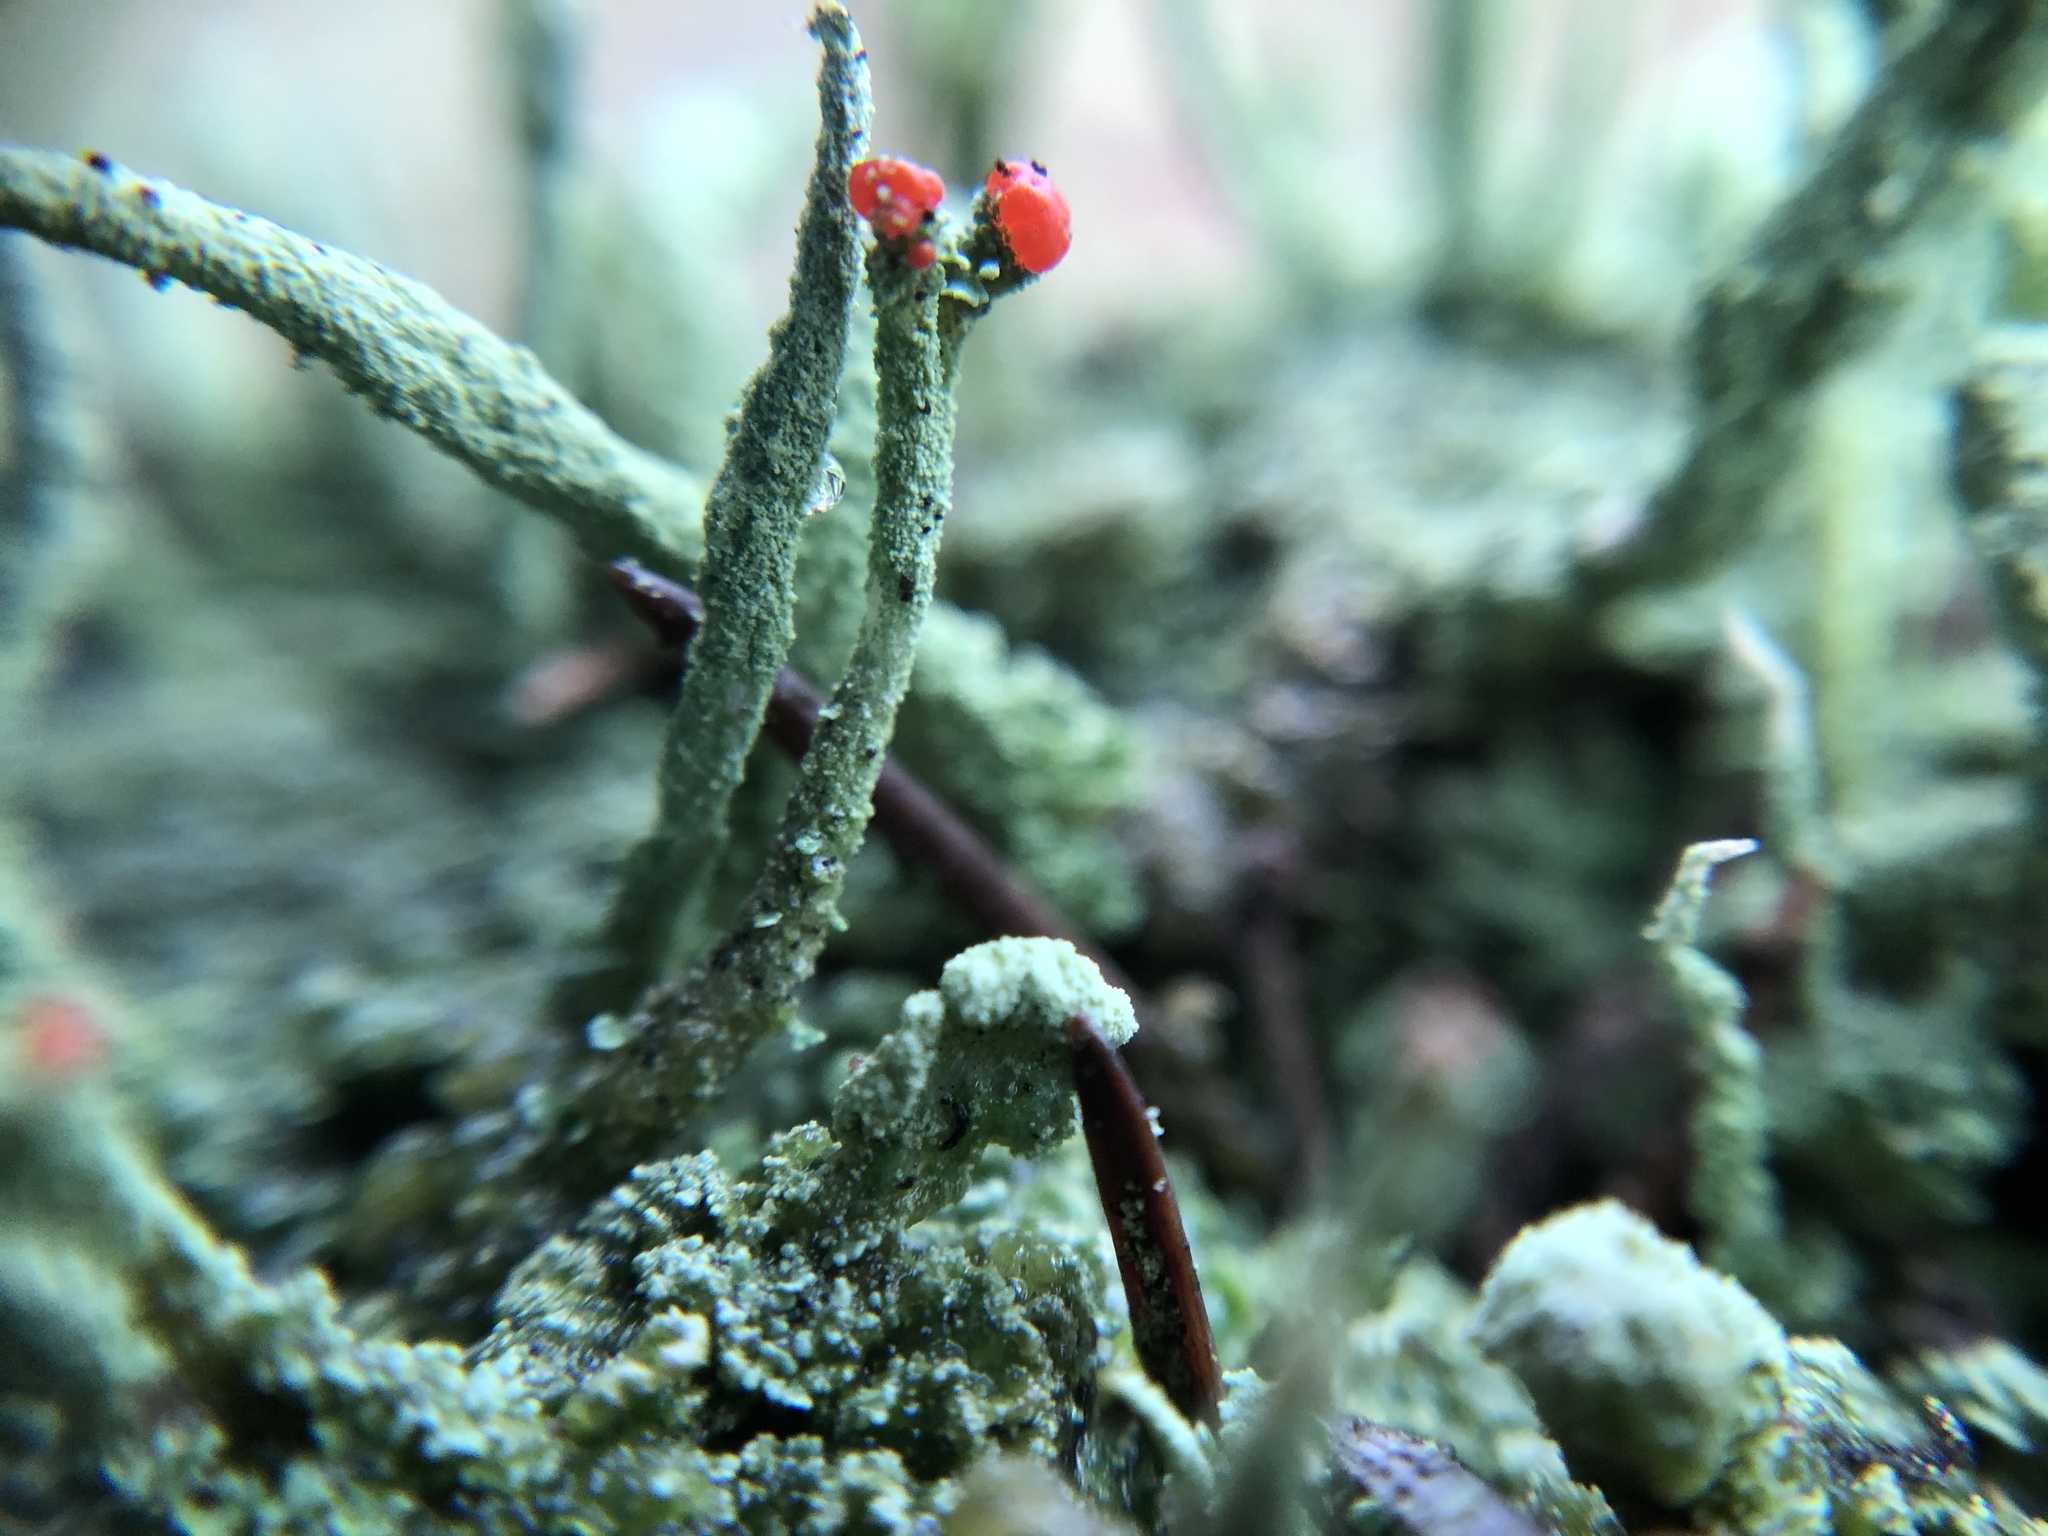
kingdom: Fungi
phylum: Ascomycota
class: Lecanoromycetes
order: Lecanorales
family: Cladoniaceae
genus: Cladonia
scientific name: Cladonia macilenta
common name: Lipstick powderhorn
